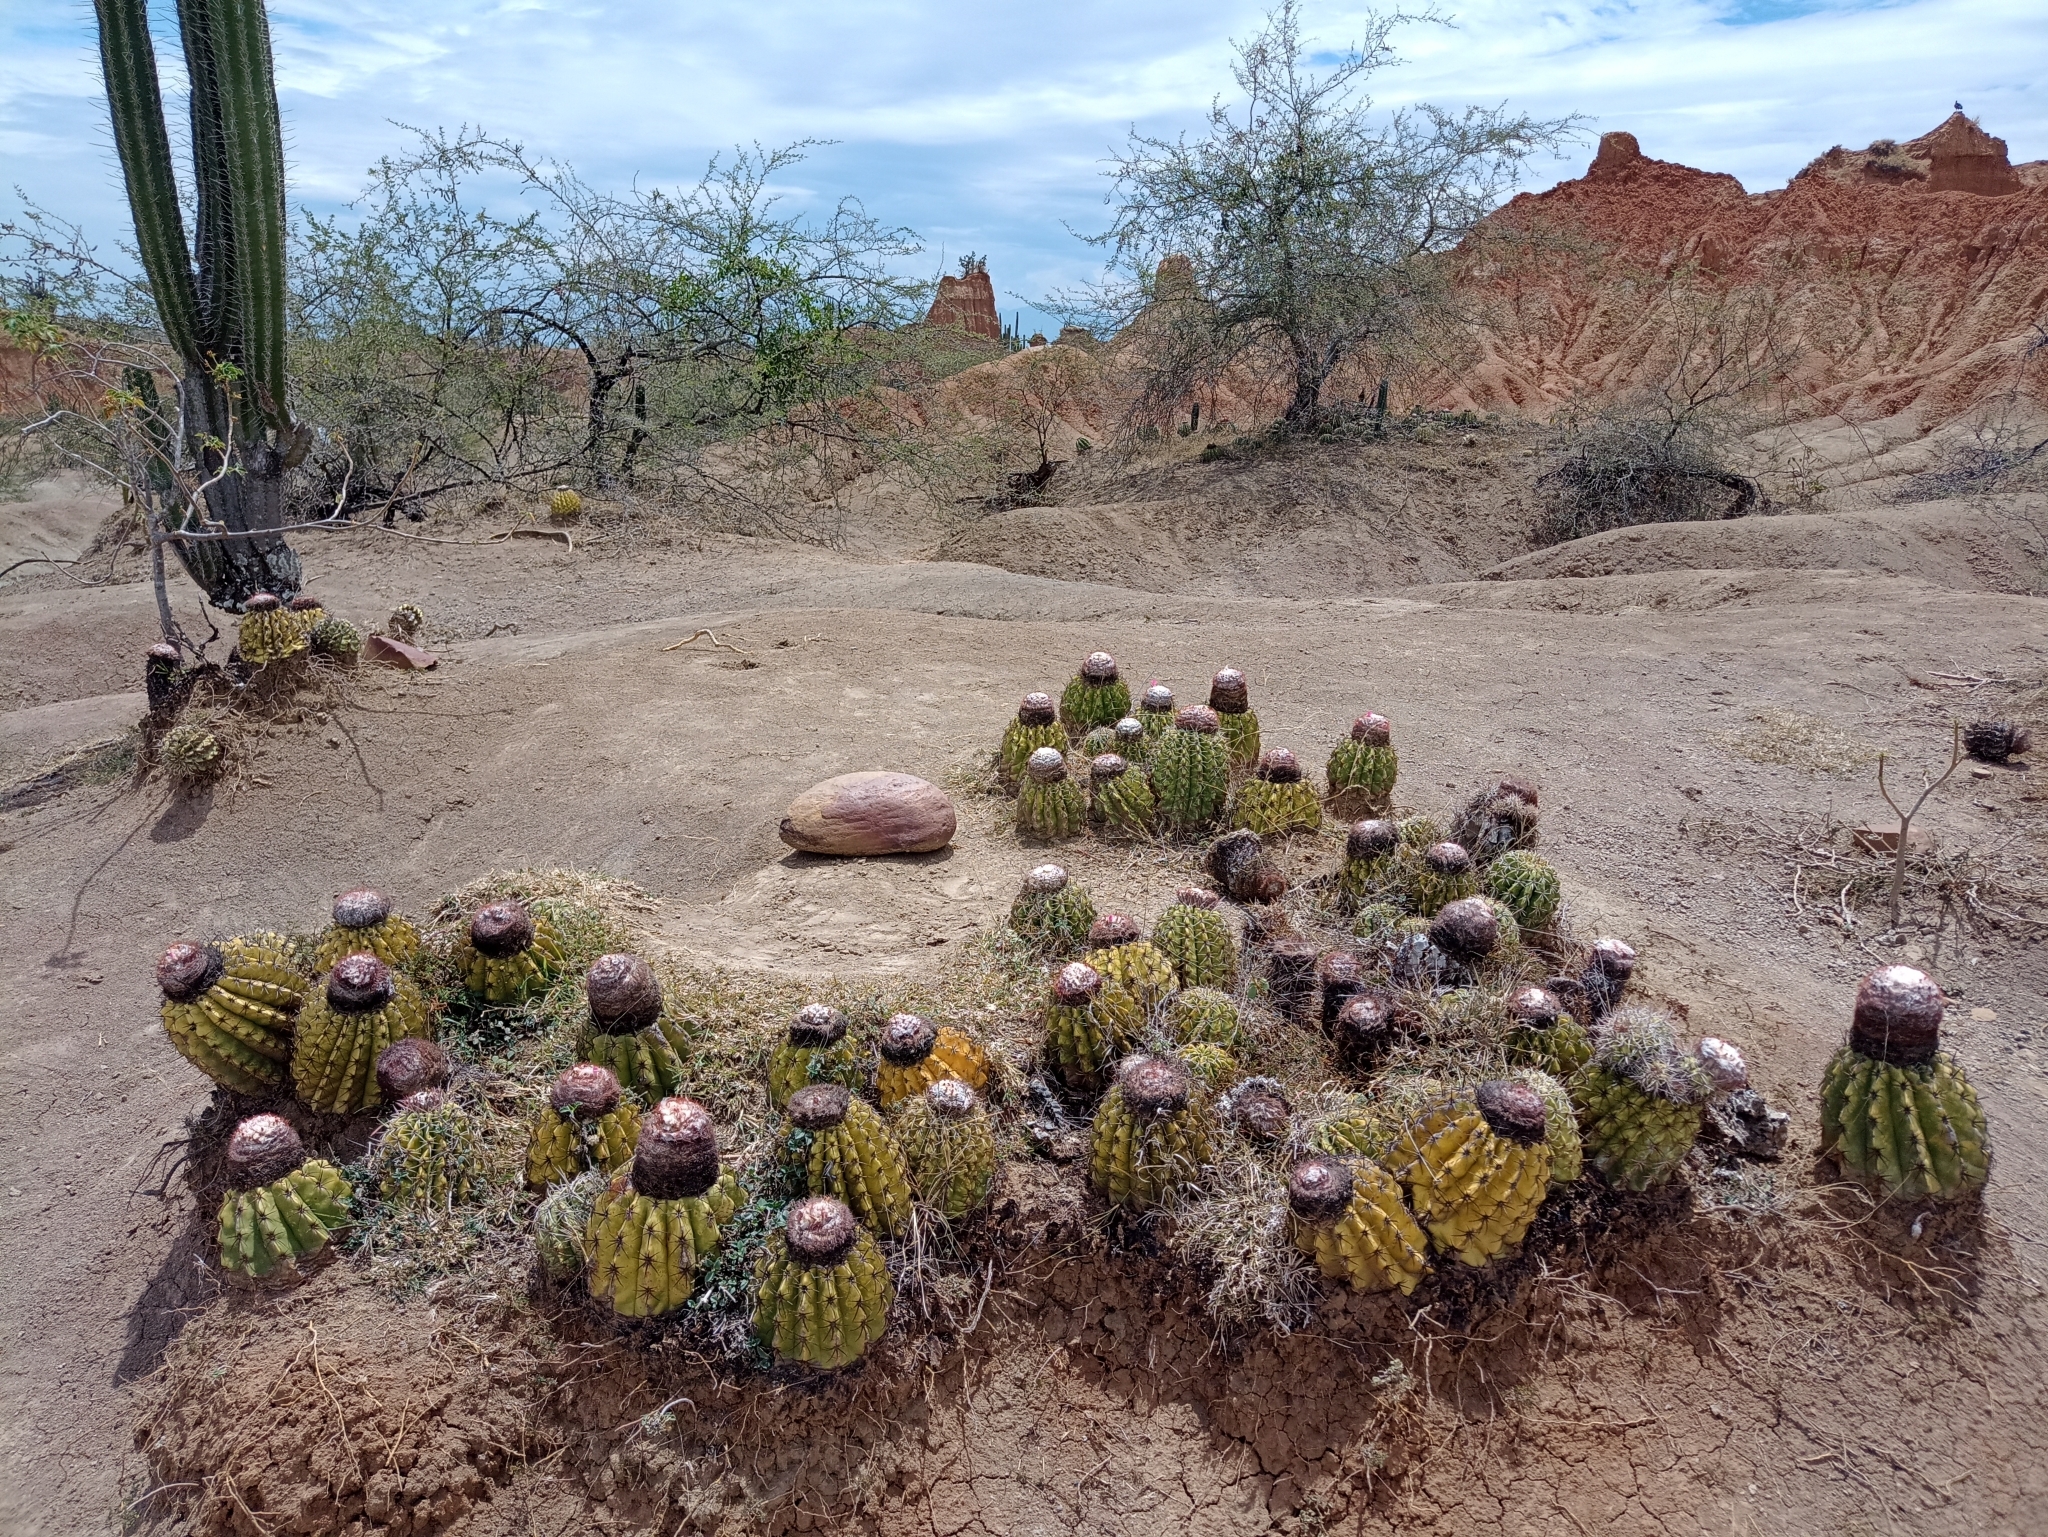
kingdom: Plantae
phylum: Tracheophyta
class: Magnoliopsida
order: Caryophyllales
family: Cactaceae
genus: Melocactus
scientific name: Melocactus curvispinus
